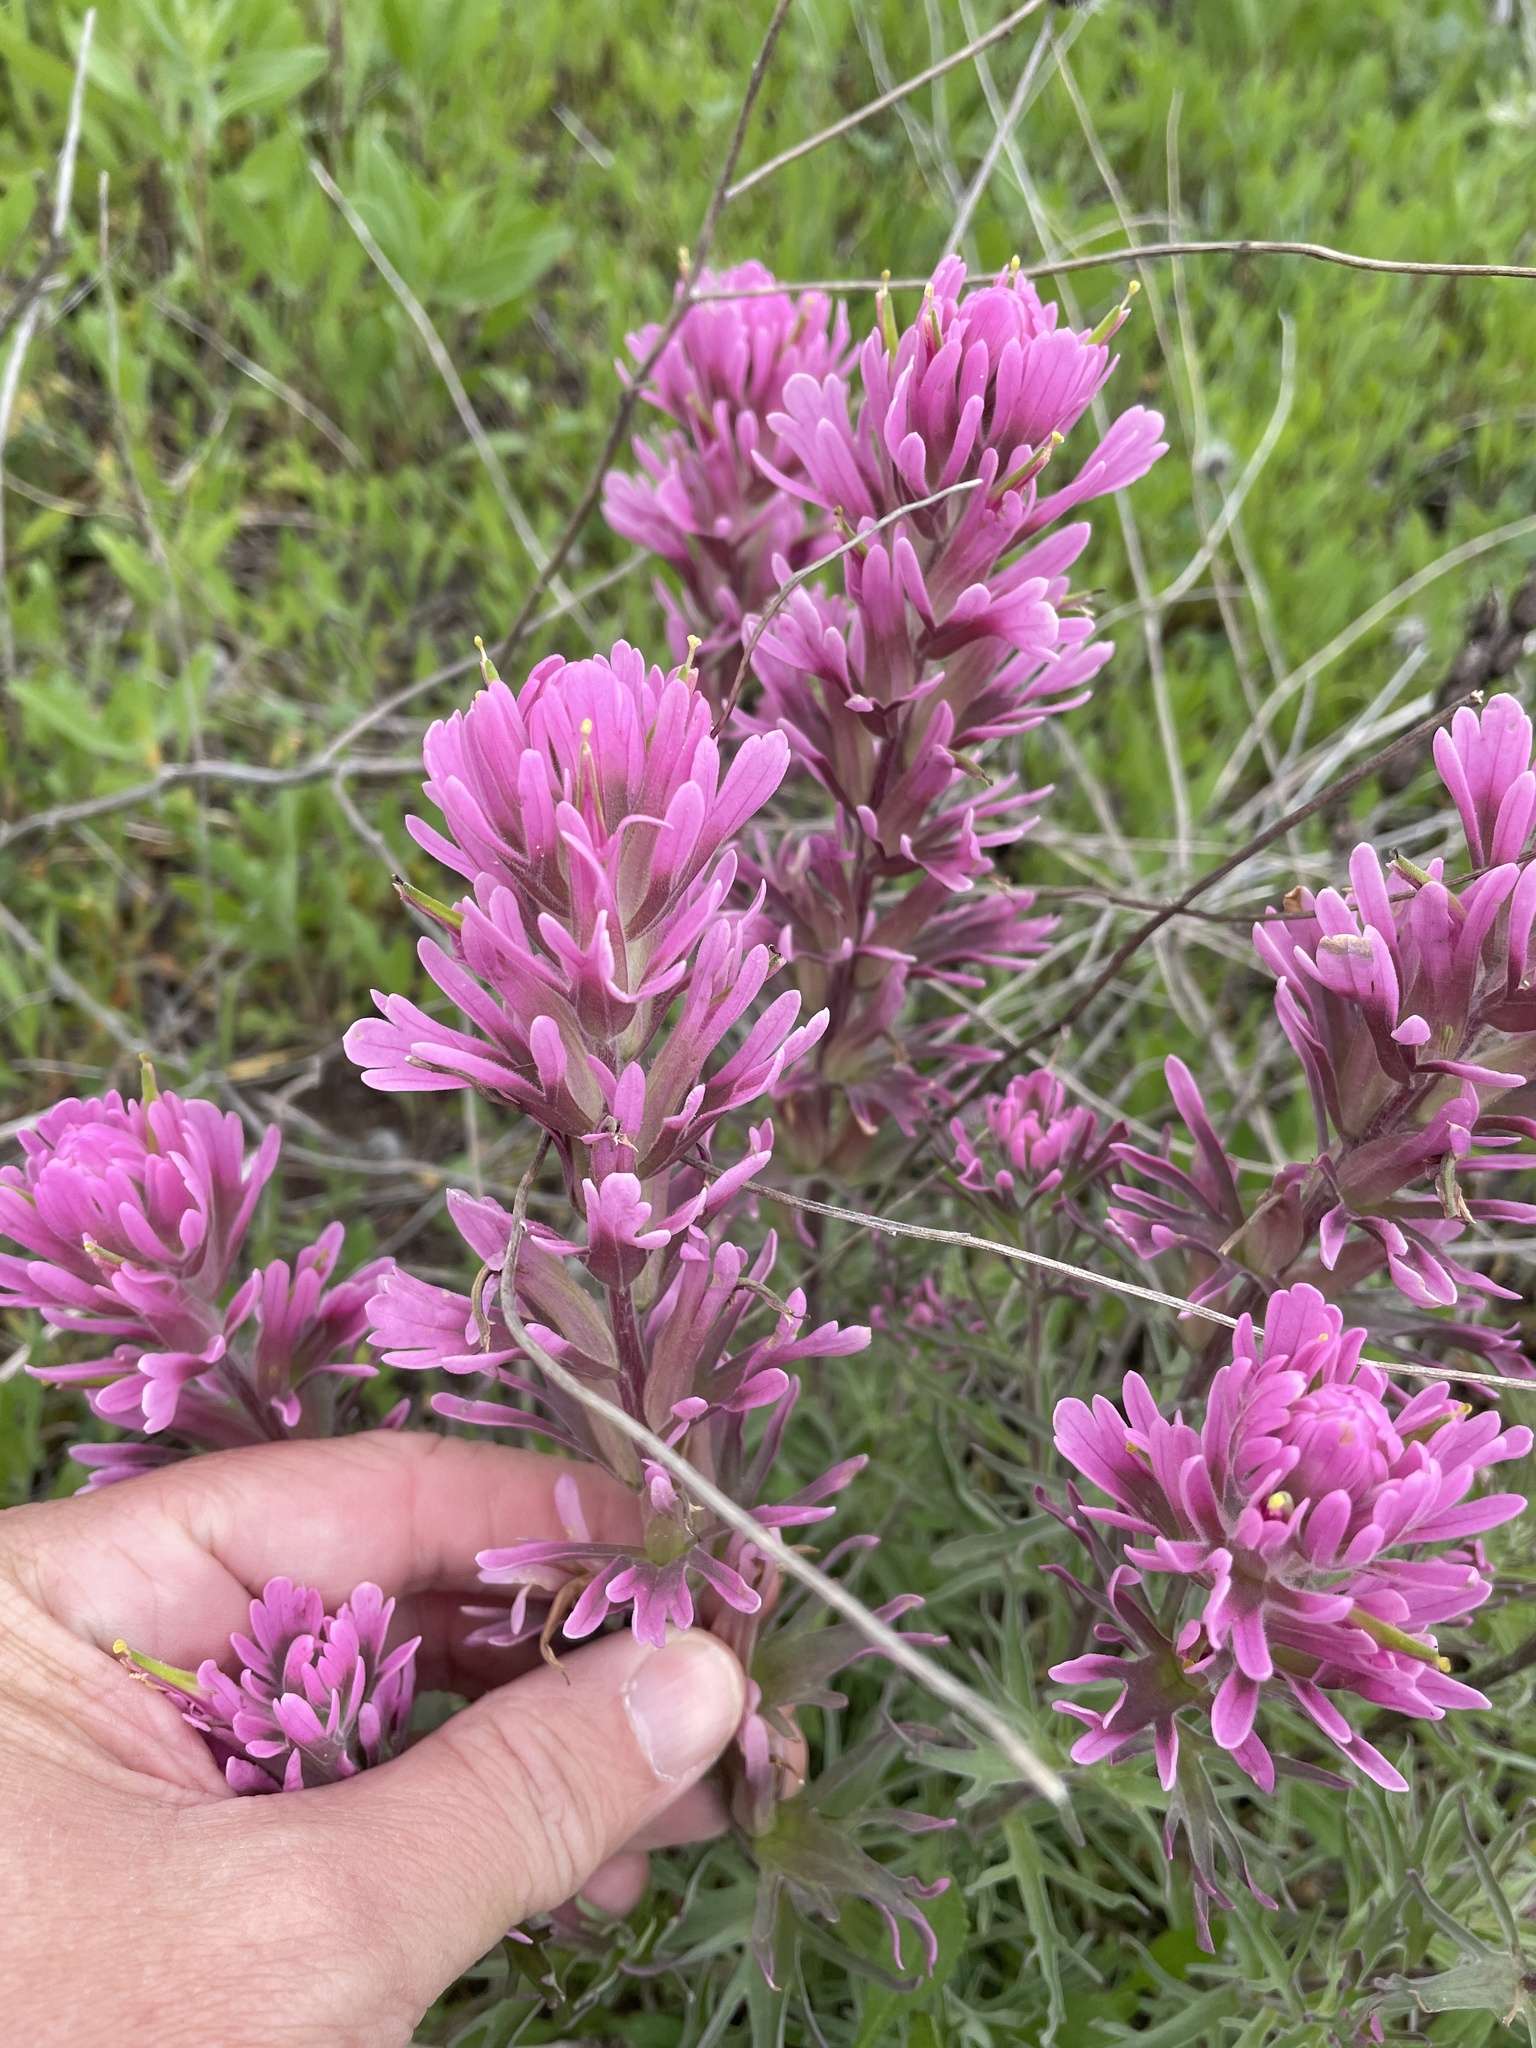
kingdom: Plantae
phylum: Tracheophyta
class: Magnoliopsida
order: Lamiales
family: Orobanchaceae
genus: Castilleja
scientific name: Castilleja purpurea
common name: Plains paintbrush
